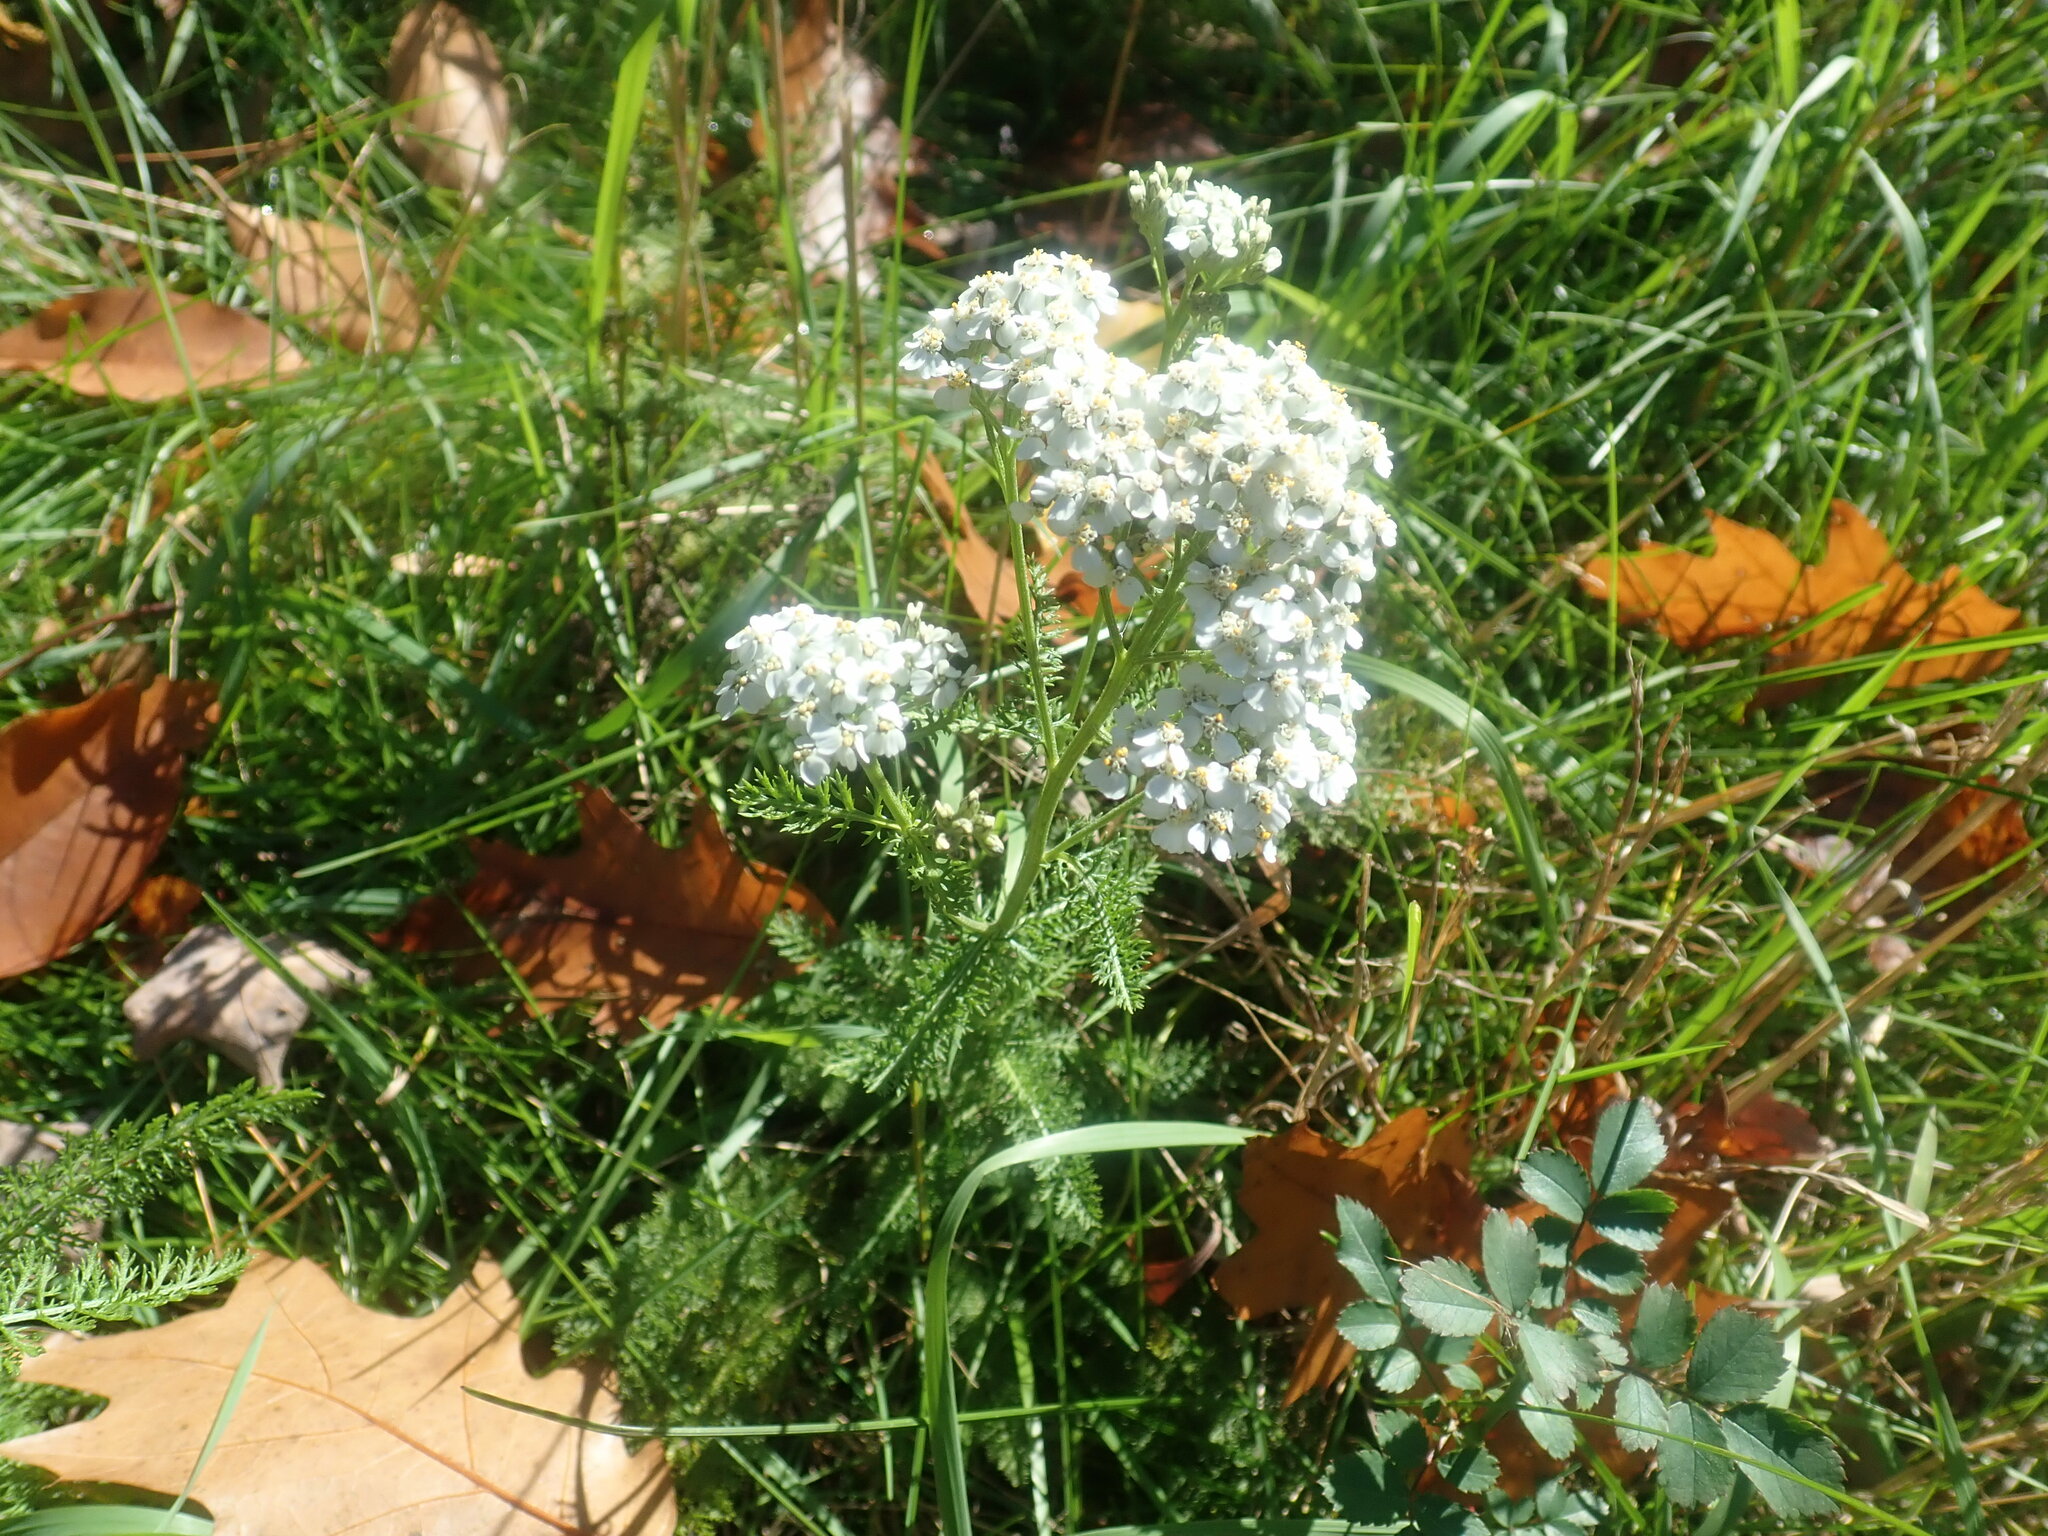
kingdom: Plantae
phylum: Tracheophyta
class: Magnoliopsida
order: Asterales
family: Asteraceae
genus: Achillea
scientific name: Achillea millefolium
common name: Yarrow
